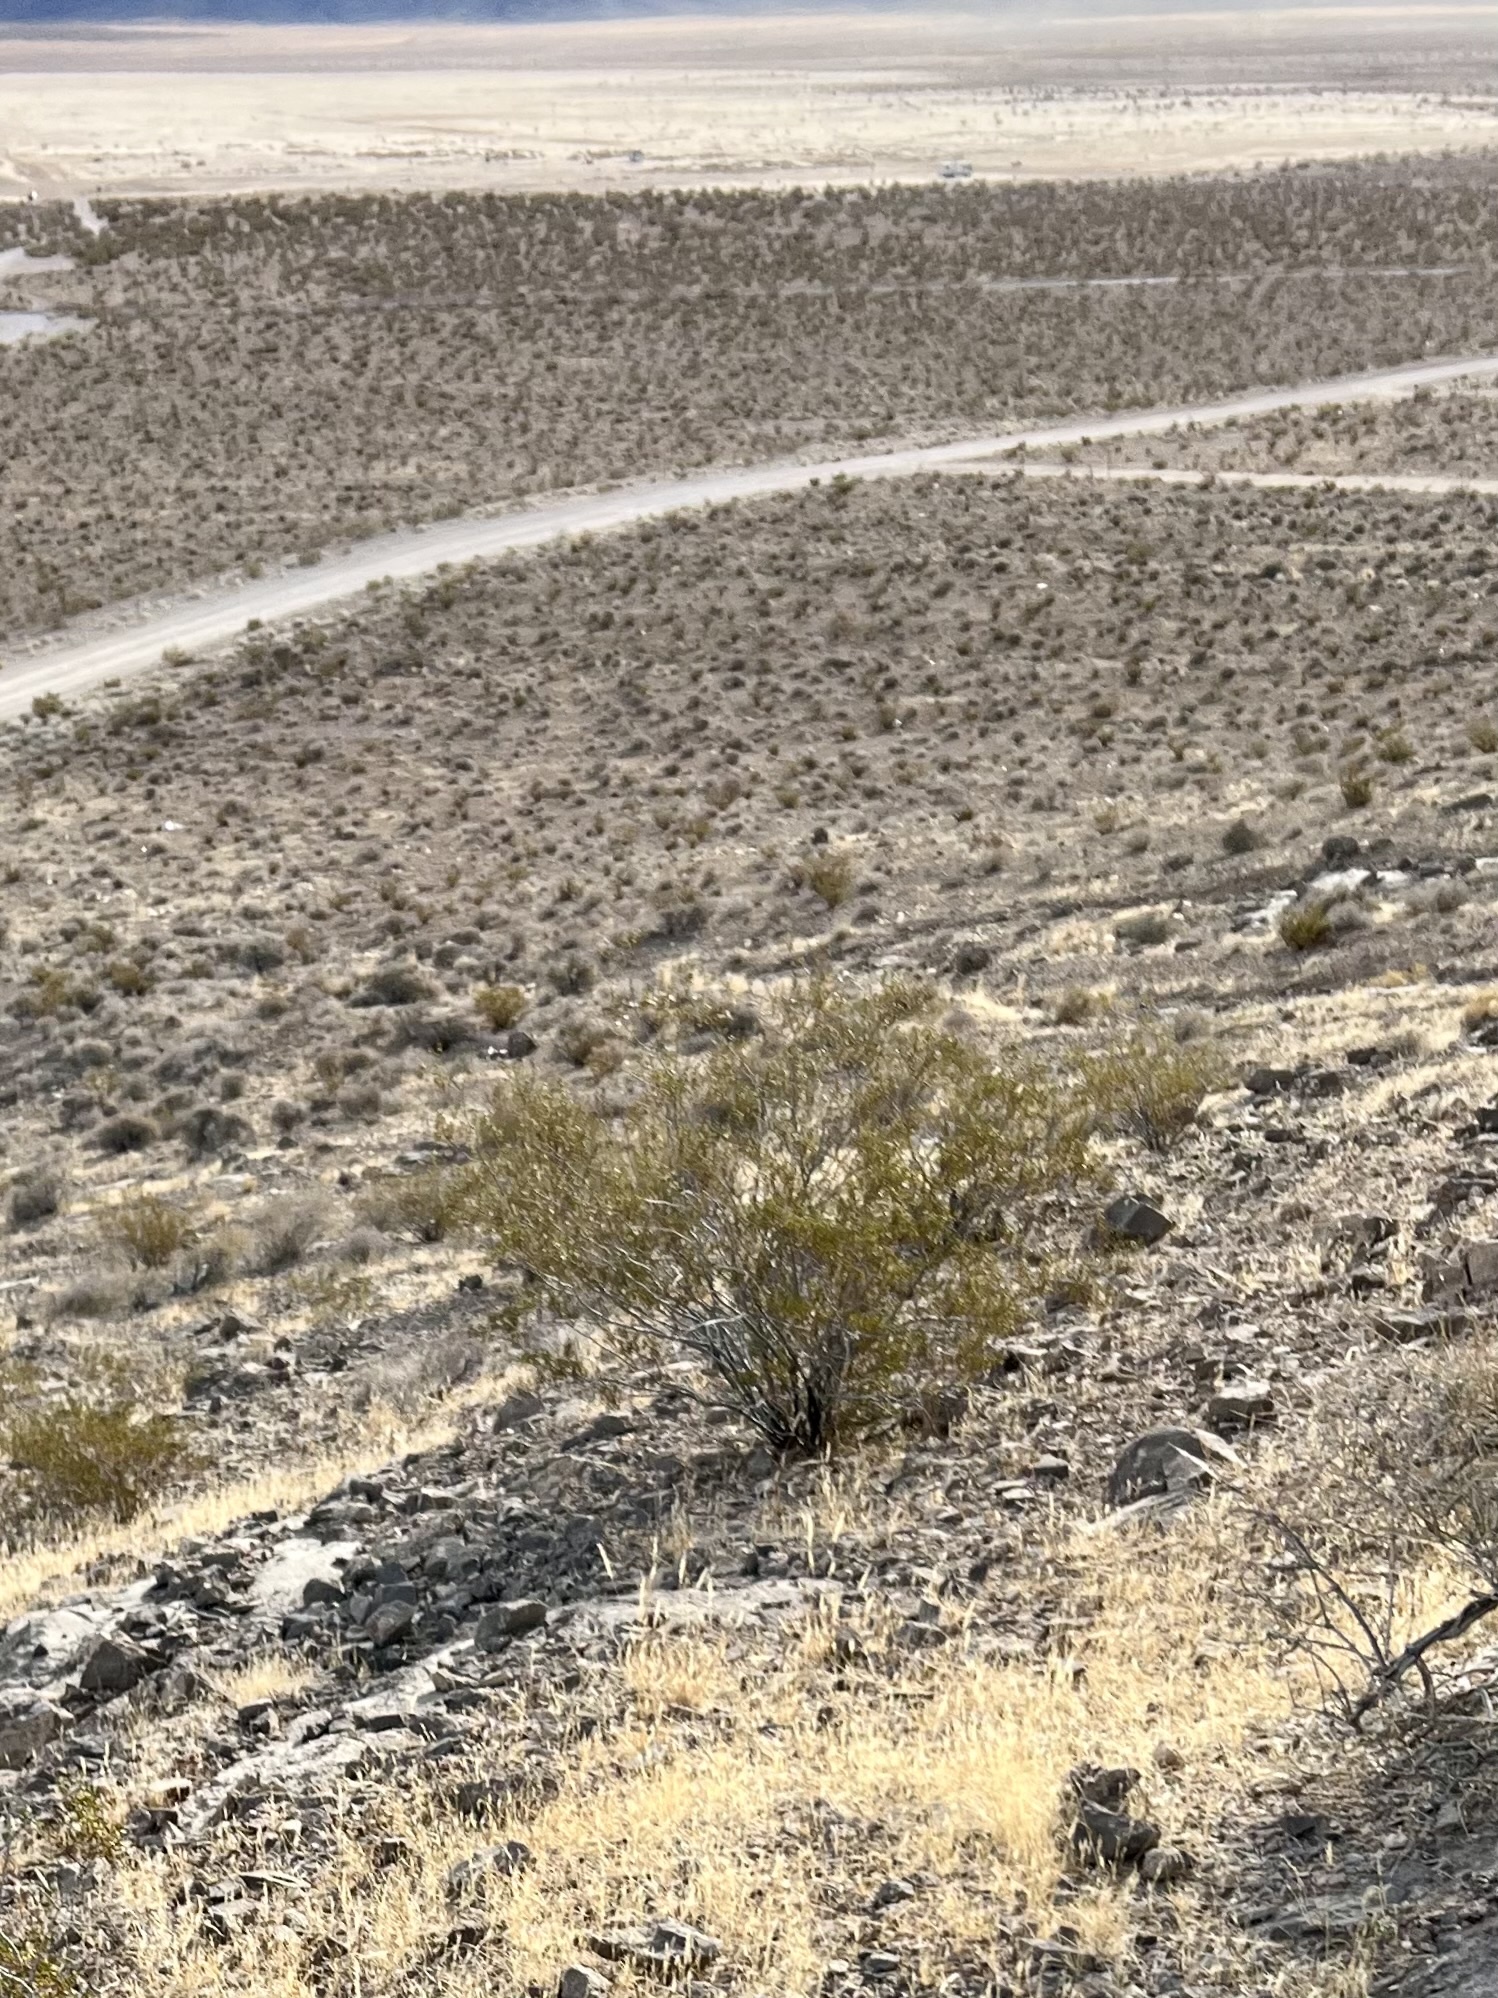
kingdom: Plantae
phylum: Tracheophyta
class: Magnoliopsida
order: Zygophyllales
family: Zygophyllaceae
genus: Larrea
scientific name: Larrea tridentata
